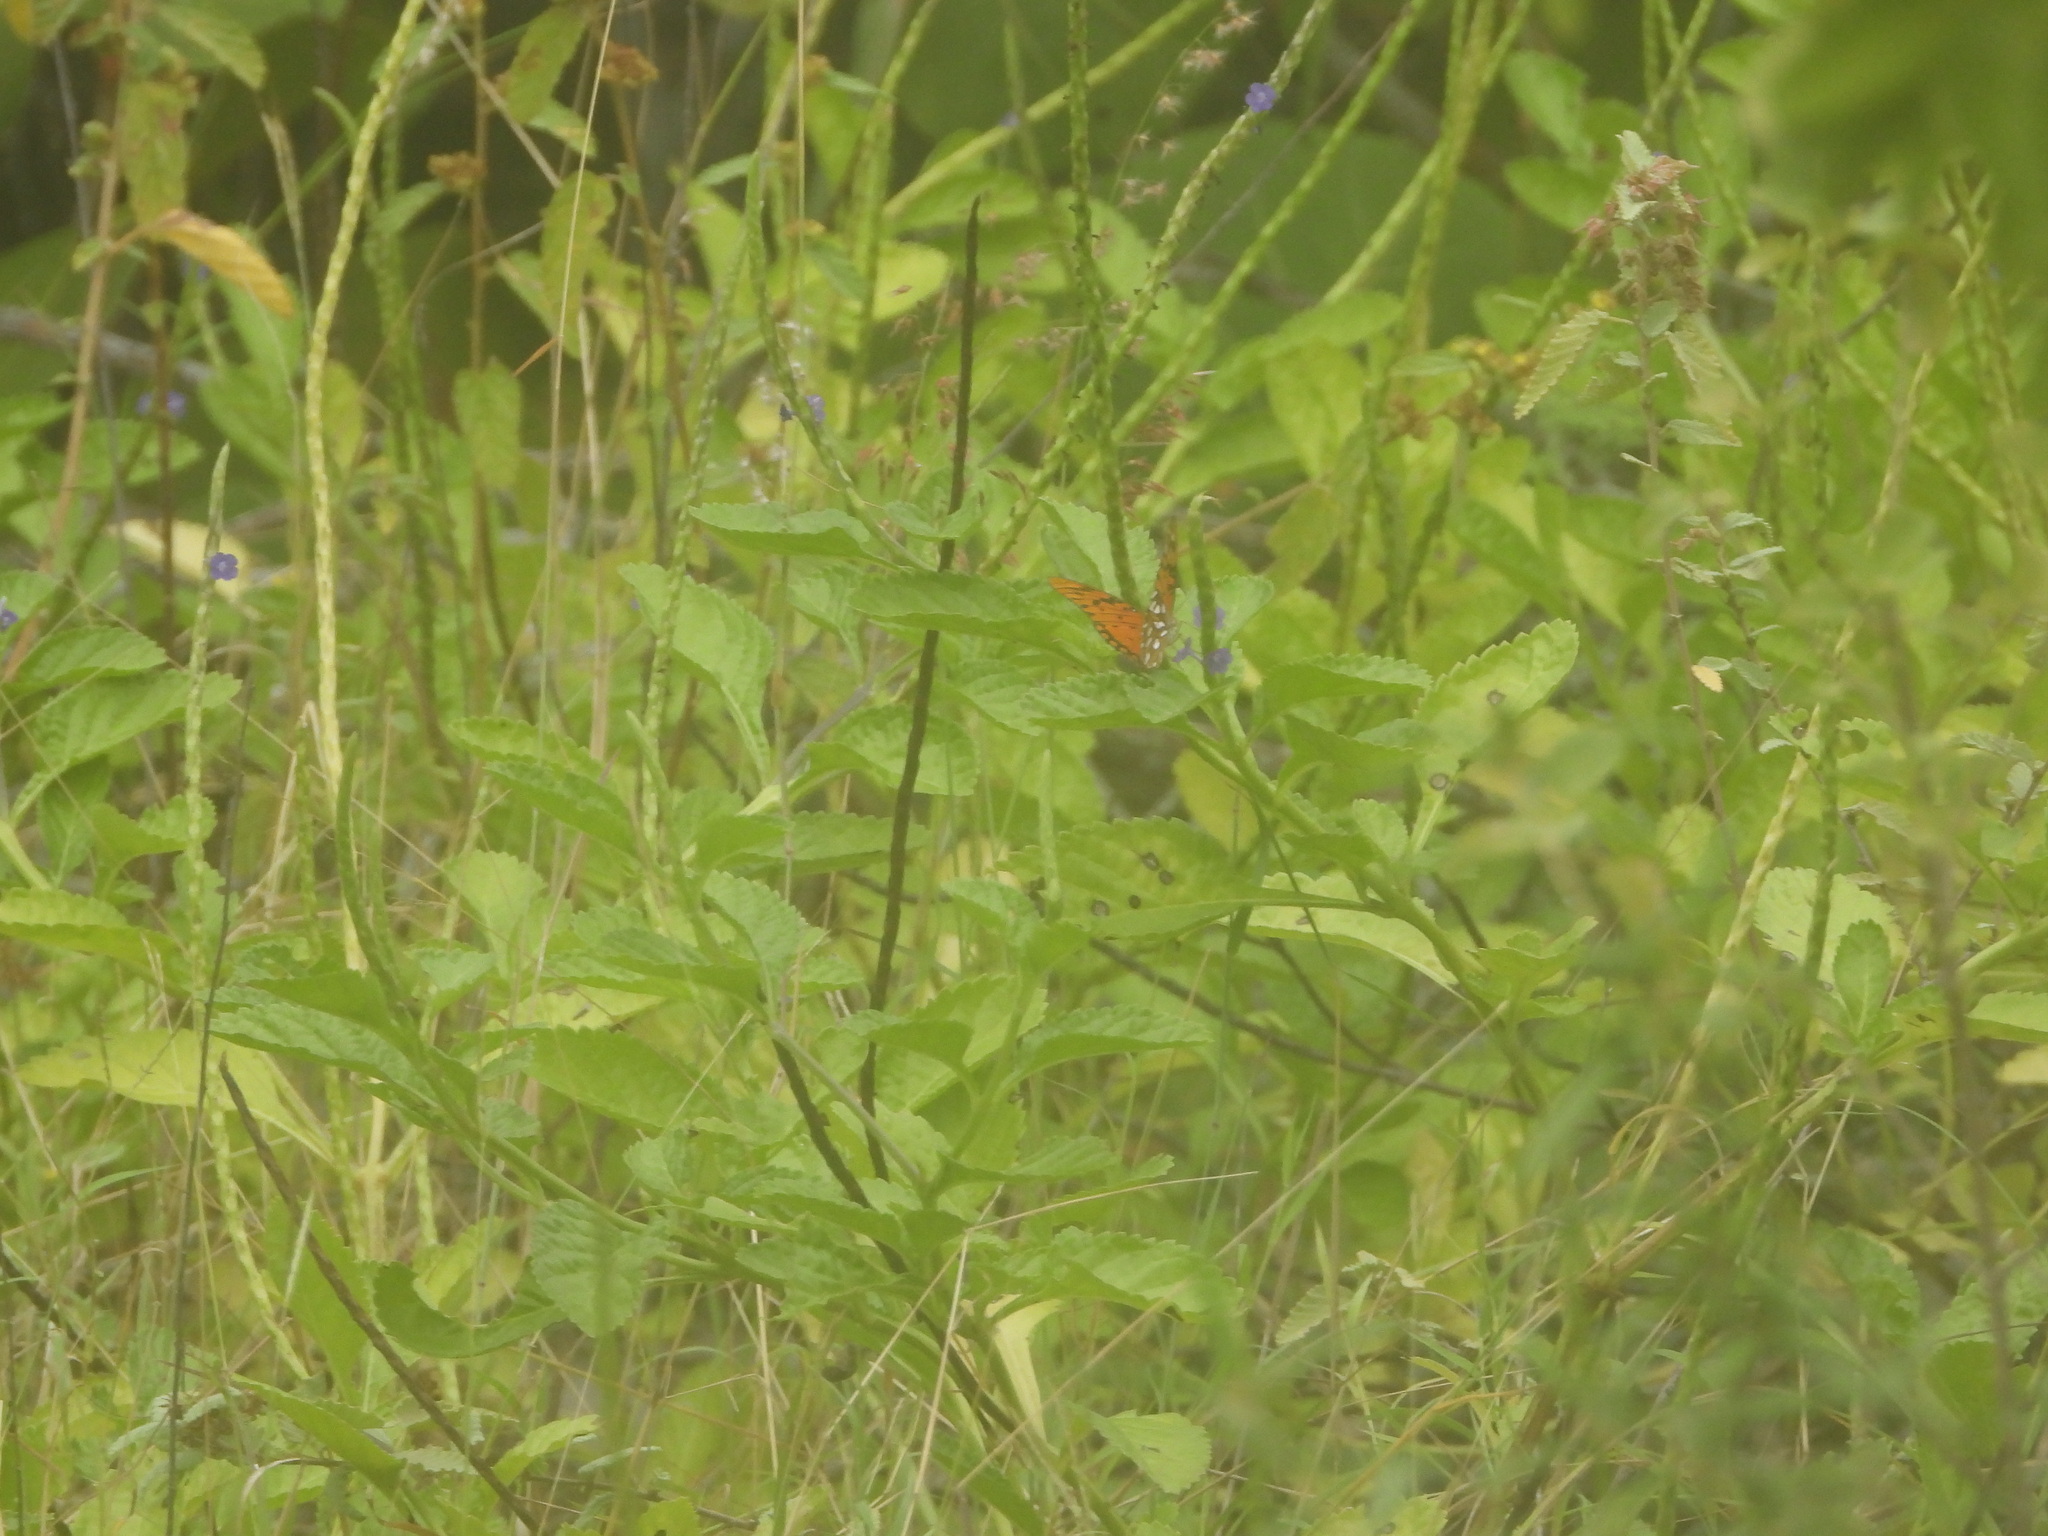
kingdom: Animalia
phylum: Arthropoda
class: Insecta
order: Lepidoptera
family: Nymphalidae
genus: Dione
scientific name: Dione vanillae
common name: Gulf fritillary
